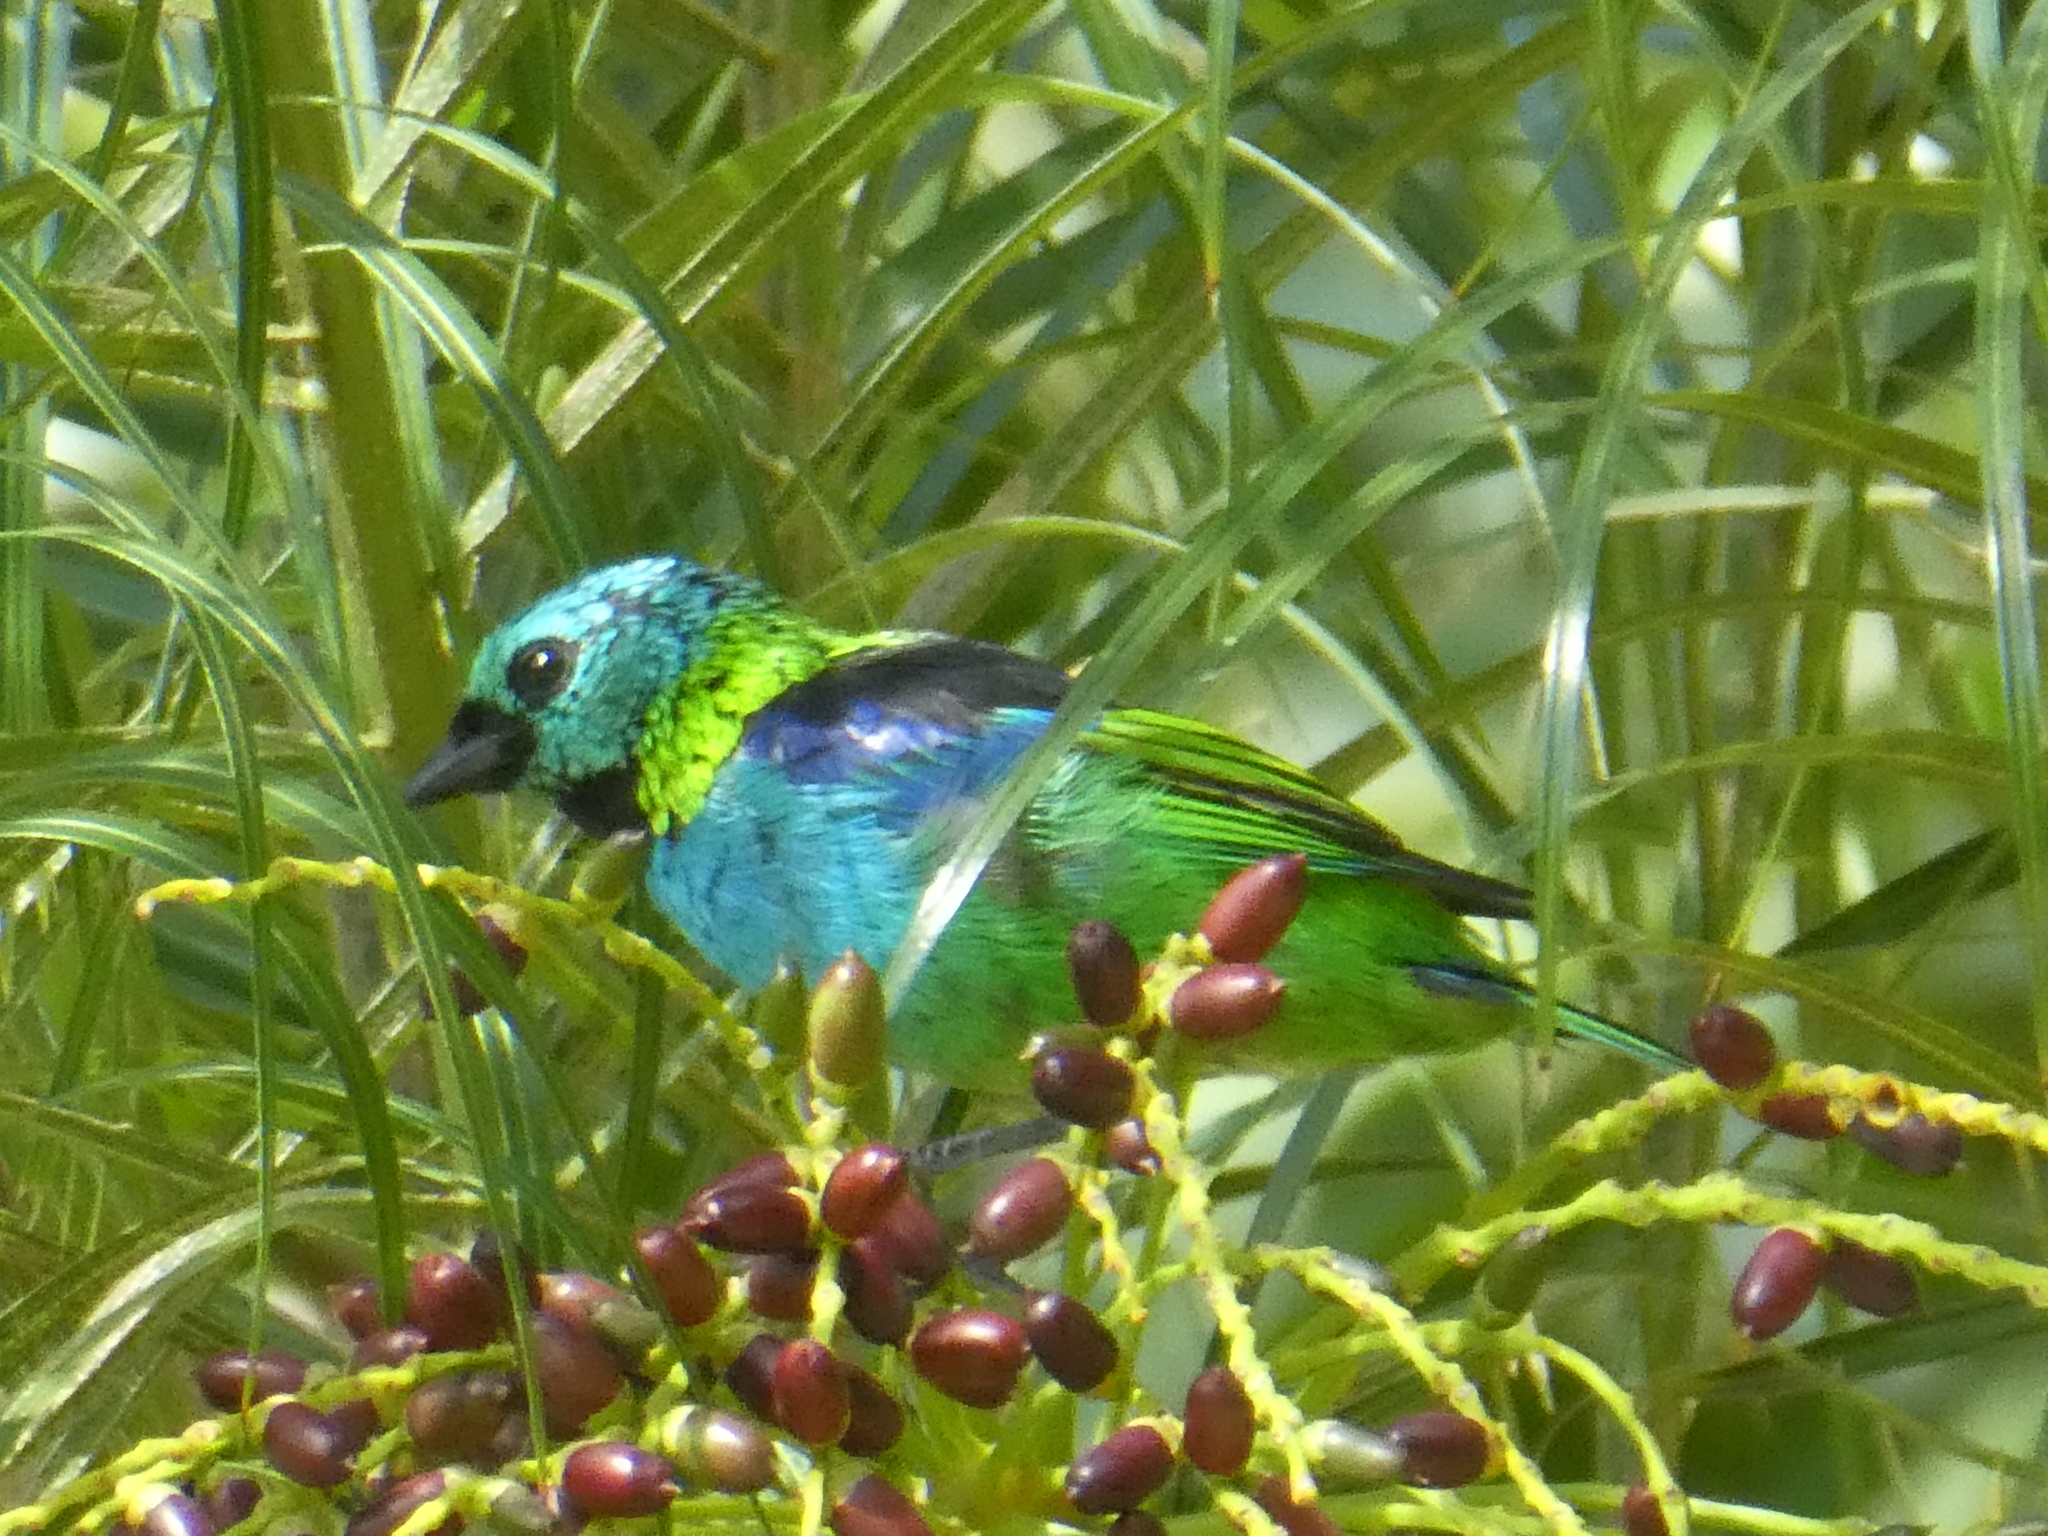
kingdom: Animalia
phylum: Chordata
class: Aves
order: Passeriformes
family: Thraupidae
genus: Tangara
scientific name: Tangara seledon
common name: Green-headed tanager
